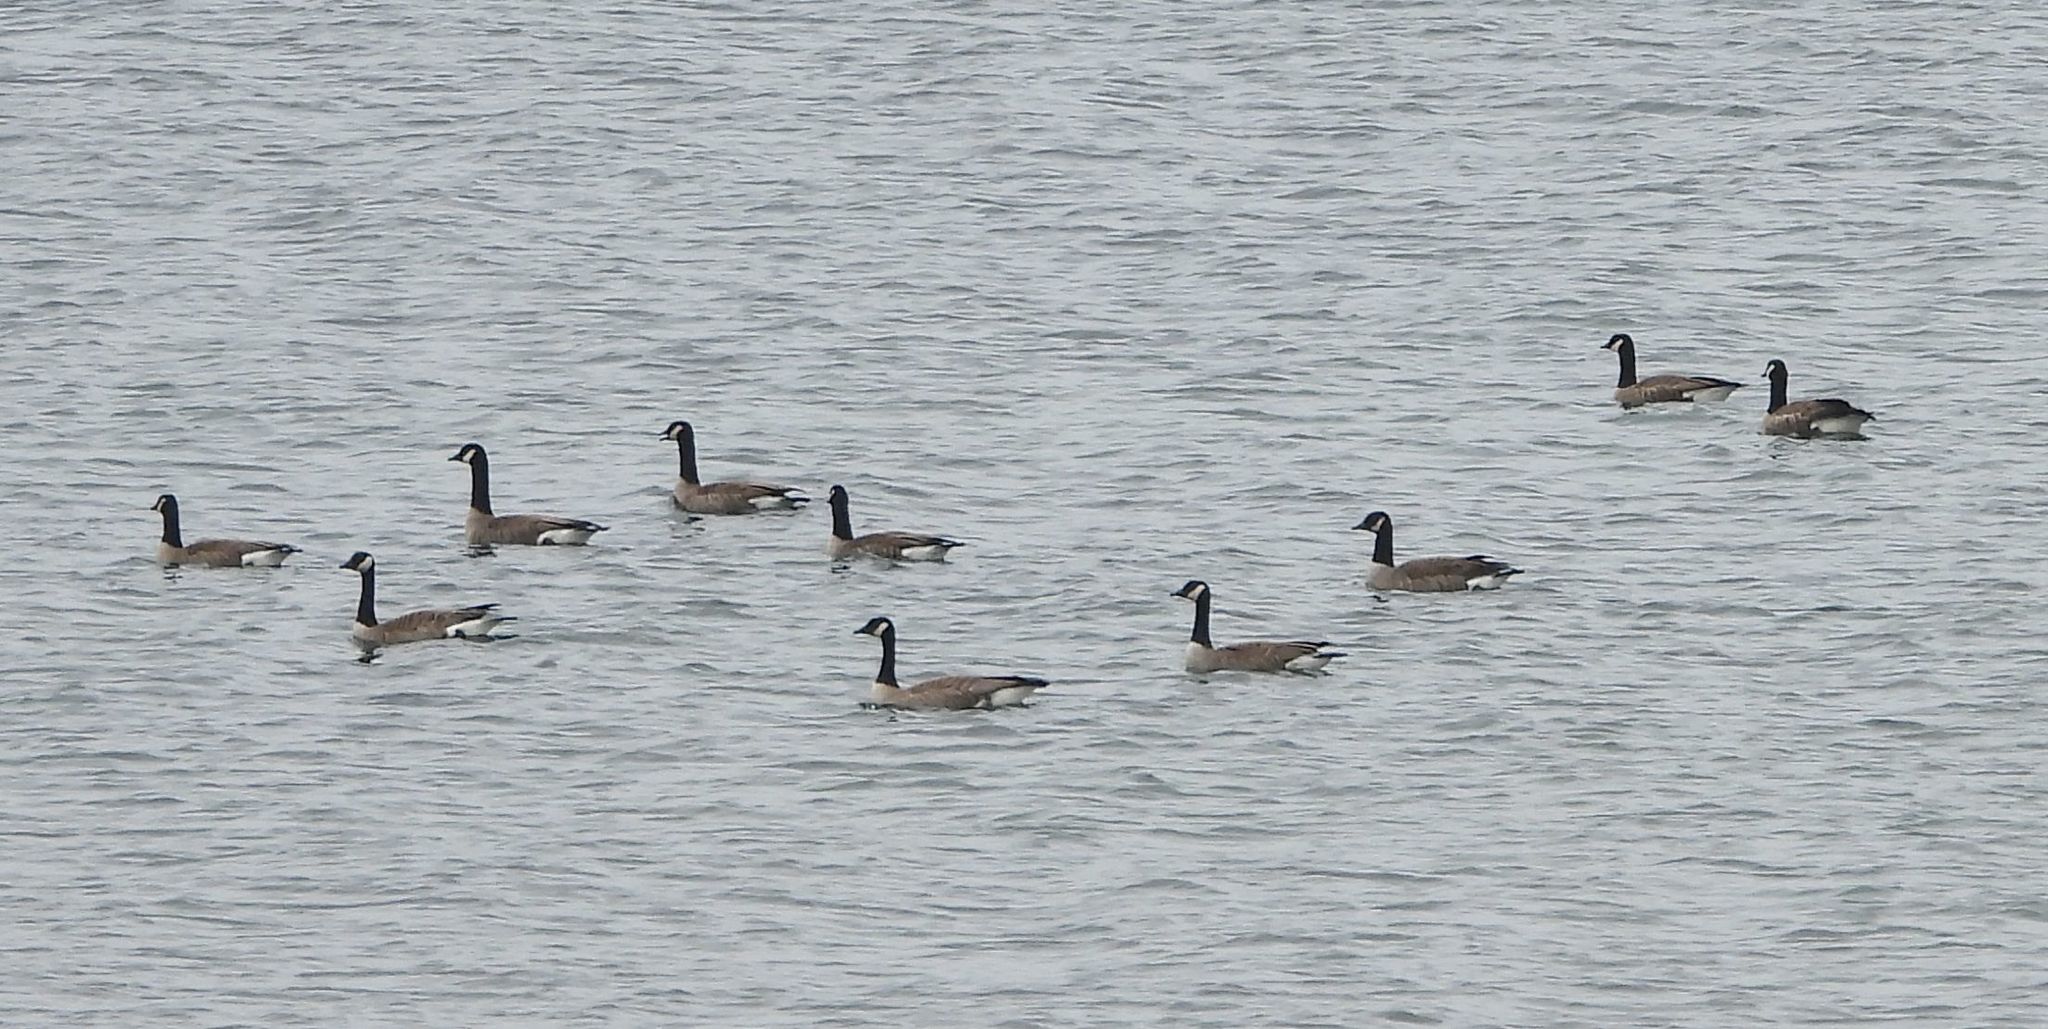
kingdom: Animalia
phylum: Chordata
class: Aves
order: Anseriformes
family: Anatidae
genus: Branta
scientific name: Branta canadensis
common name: Canada goose
